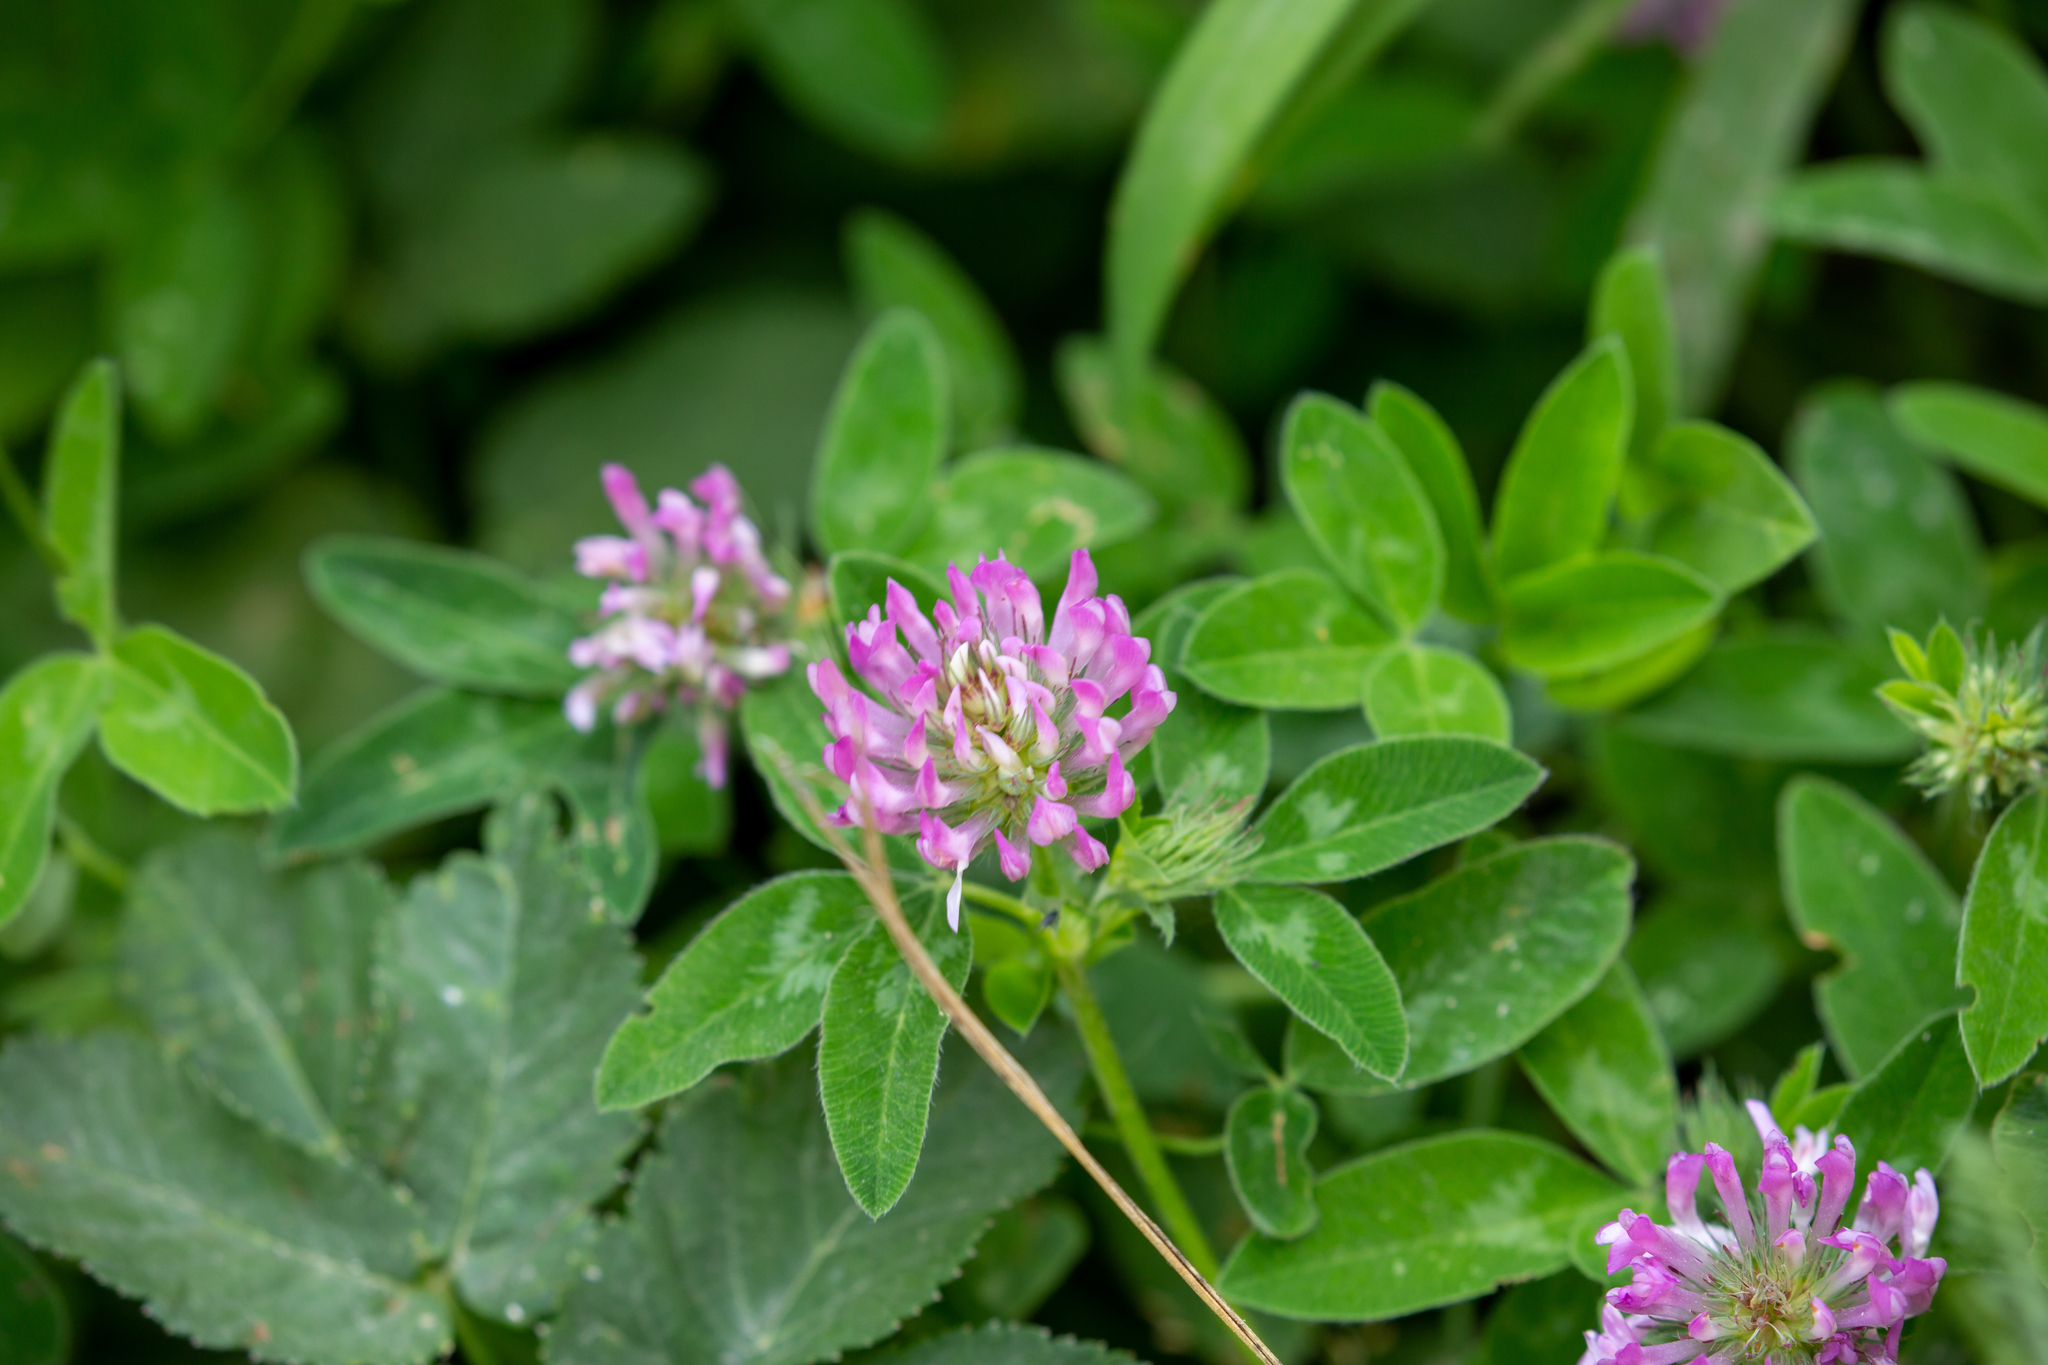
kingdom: Plantae
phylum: Tracheophyta
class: Magnoliopsida
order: Fabales
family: Fabaceae
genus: Trifolium
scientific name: Trifolium pratense
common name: Red clover
